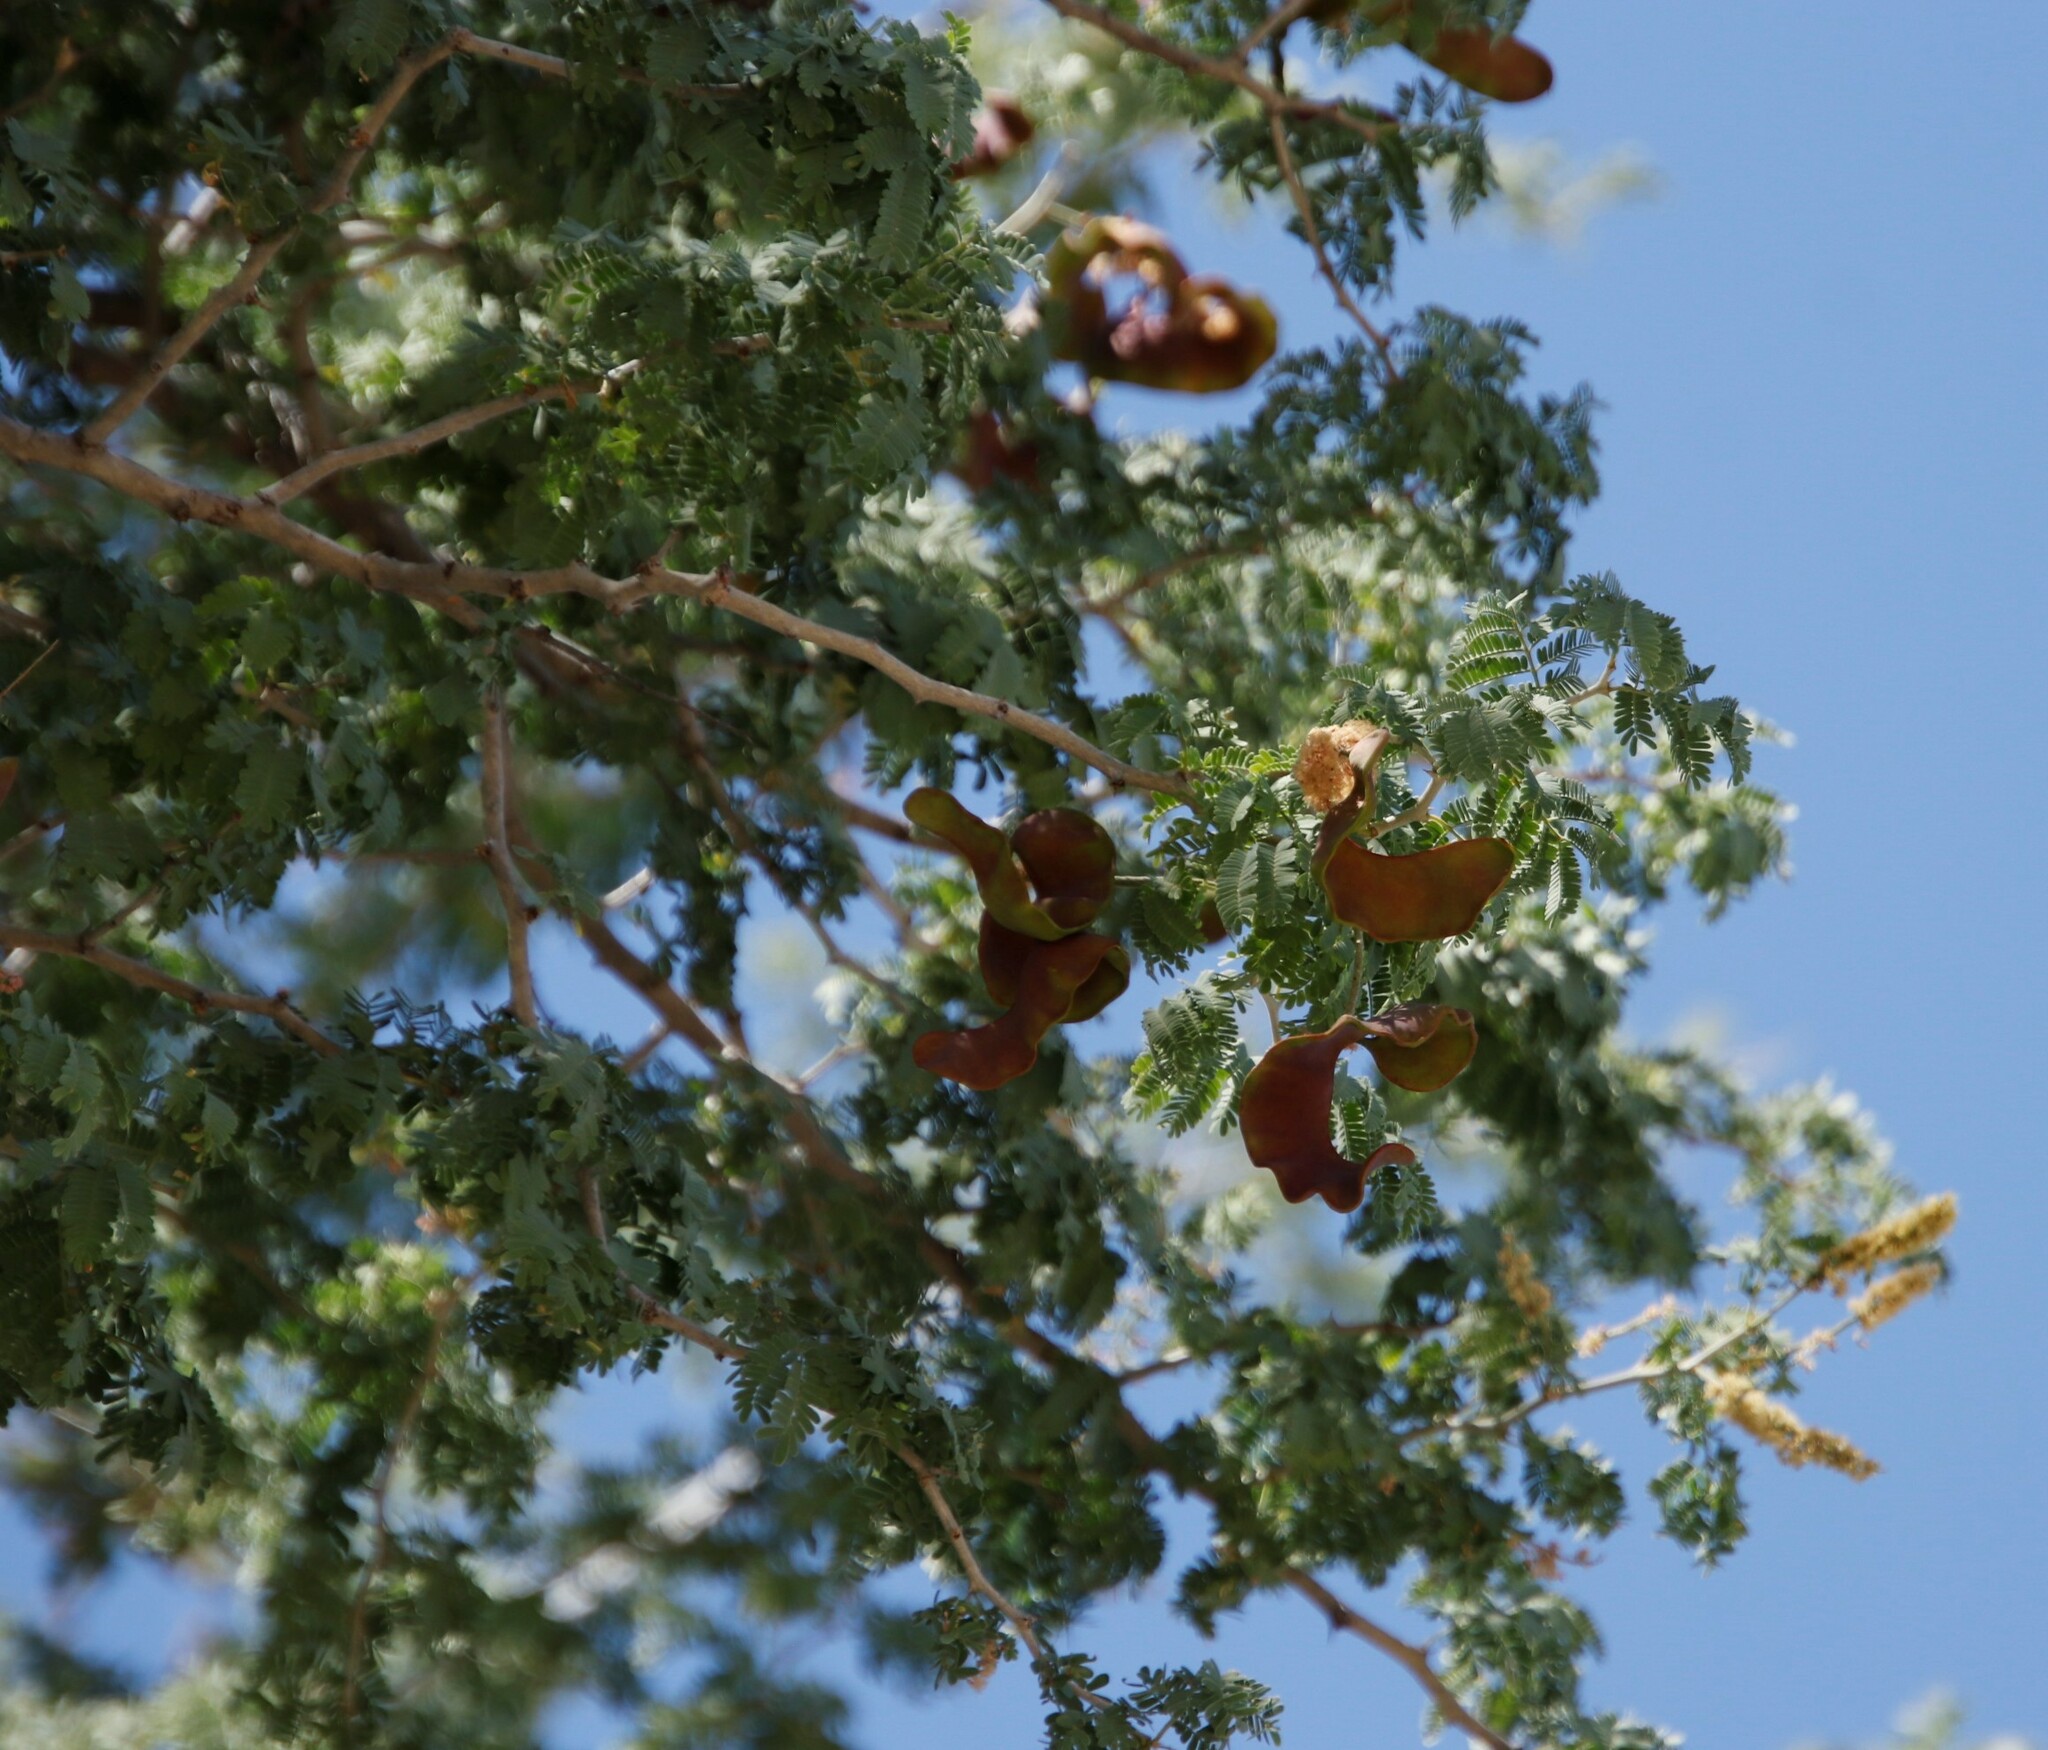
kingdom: Plantae
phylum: Tracheophyta
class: Magnoliopsida
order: Fabales
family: Fabaceae
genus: Faidherbia
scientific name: Faidherbia albida
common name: Anatree
